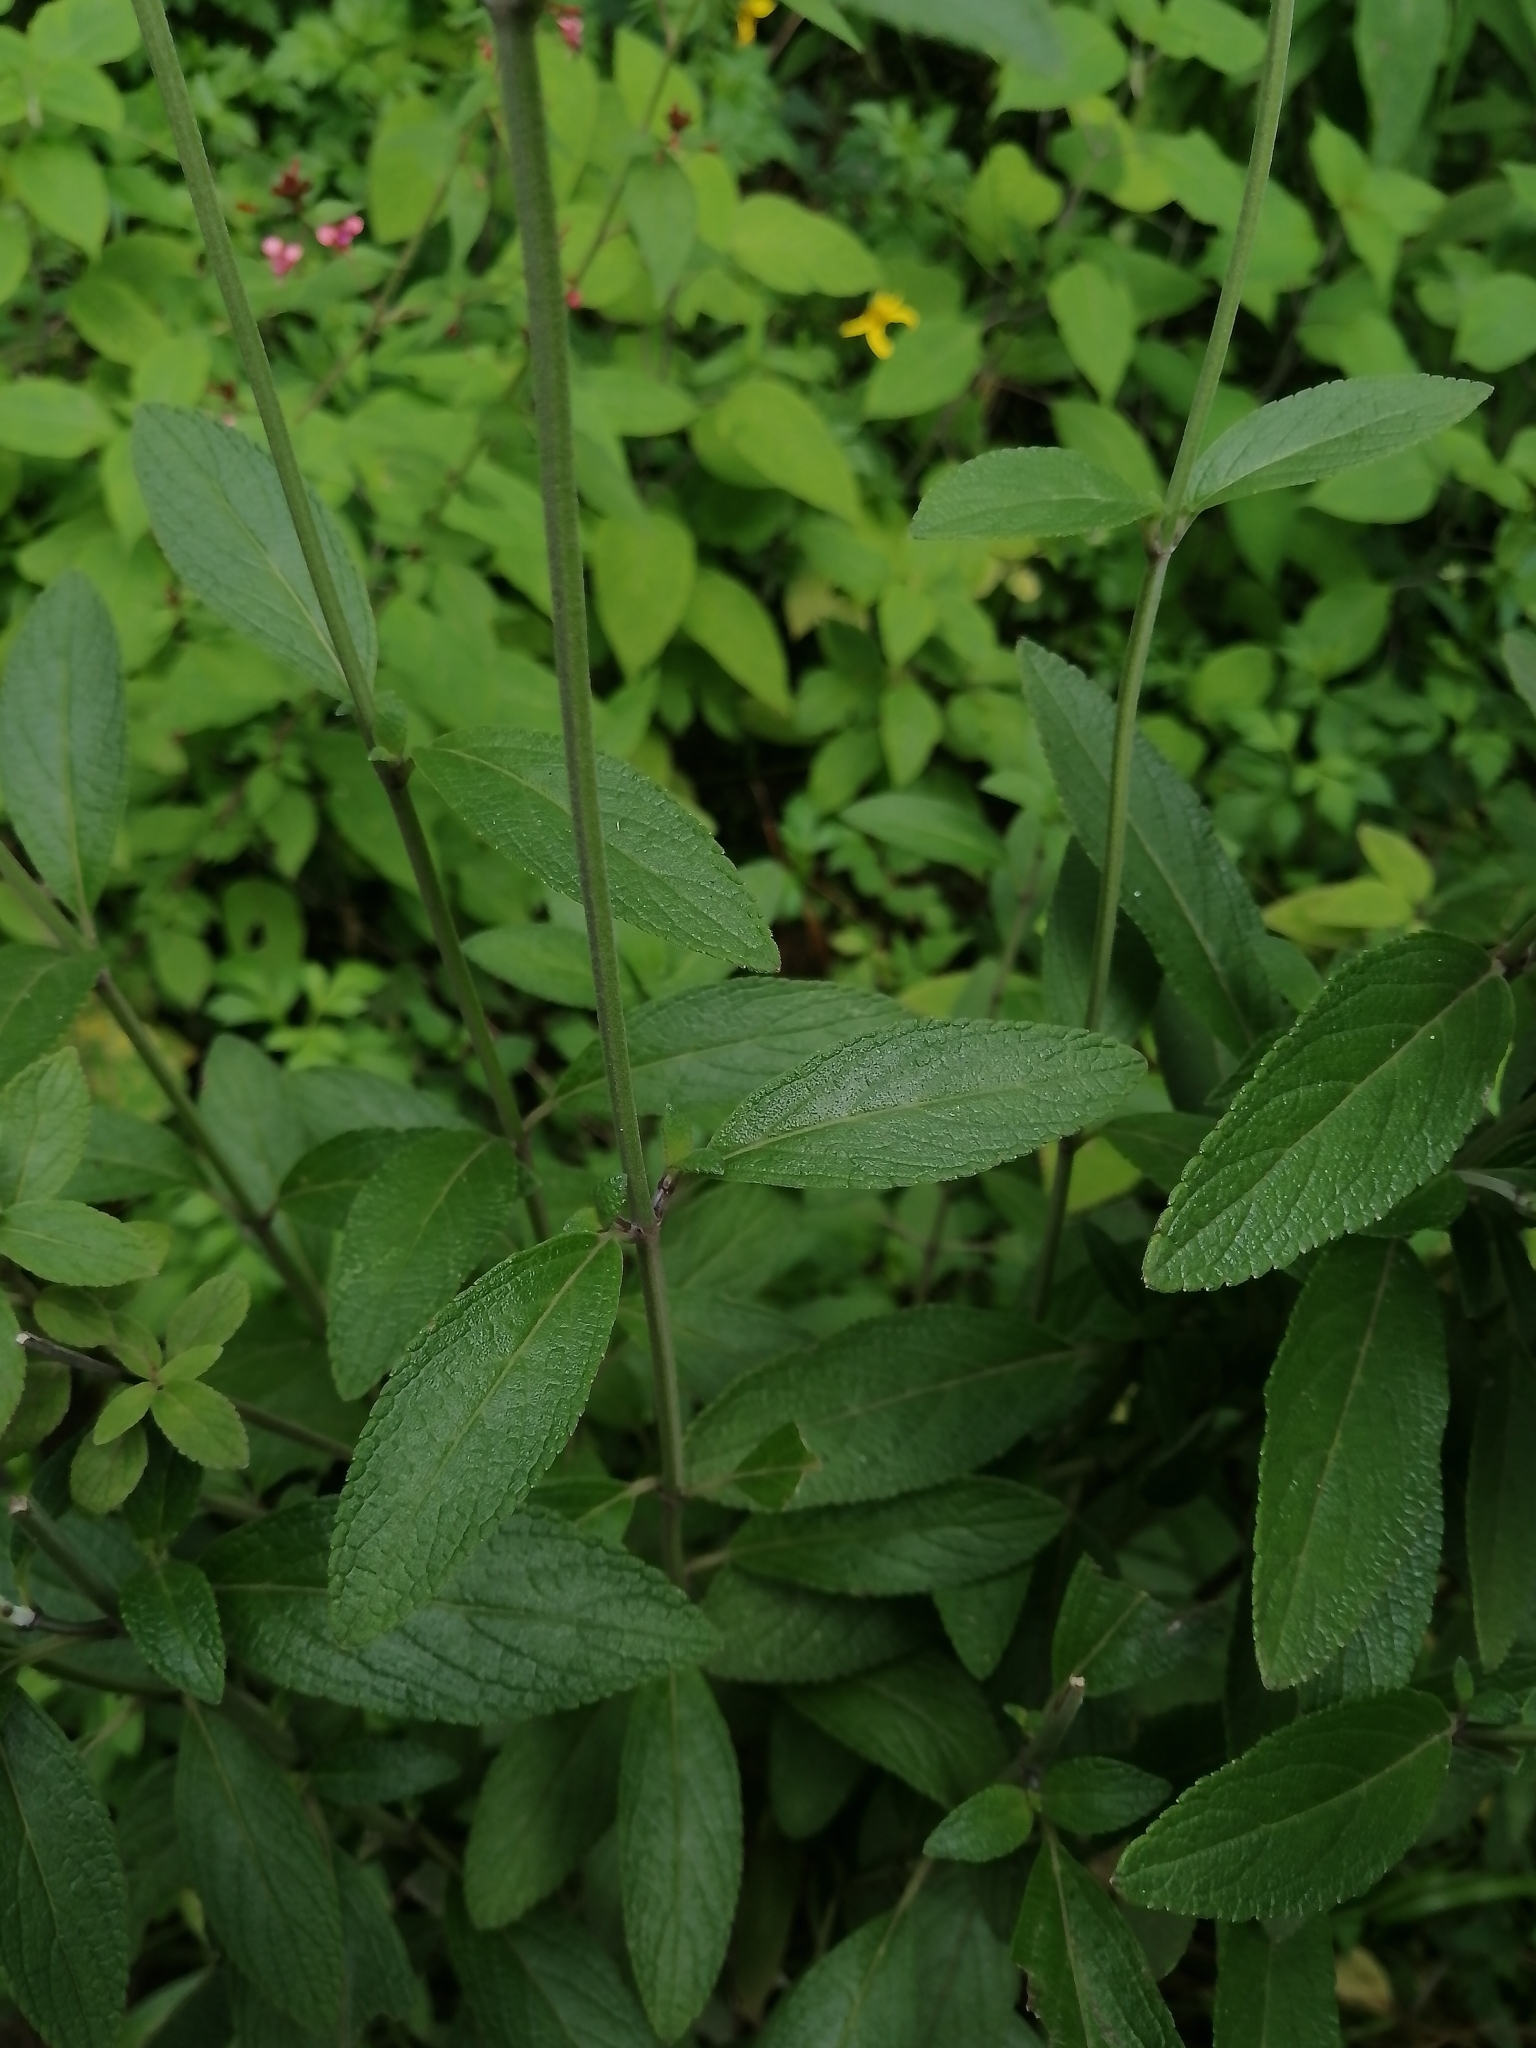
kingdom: Plantae
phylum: Tracheophyta
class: Magnoliopsida
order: Lamiales
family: Lamiaceae
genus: Salvia
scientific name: Salvia lavanduloides
